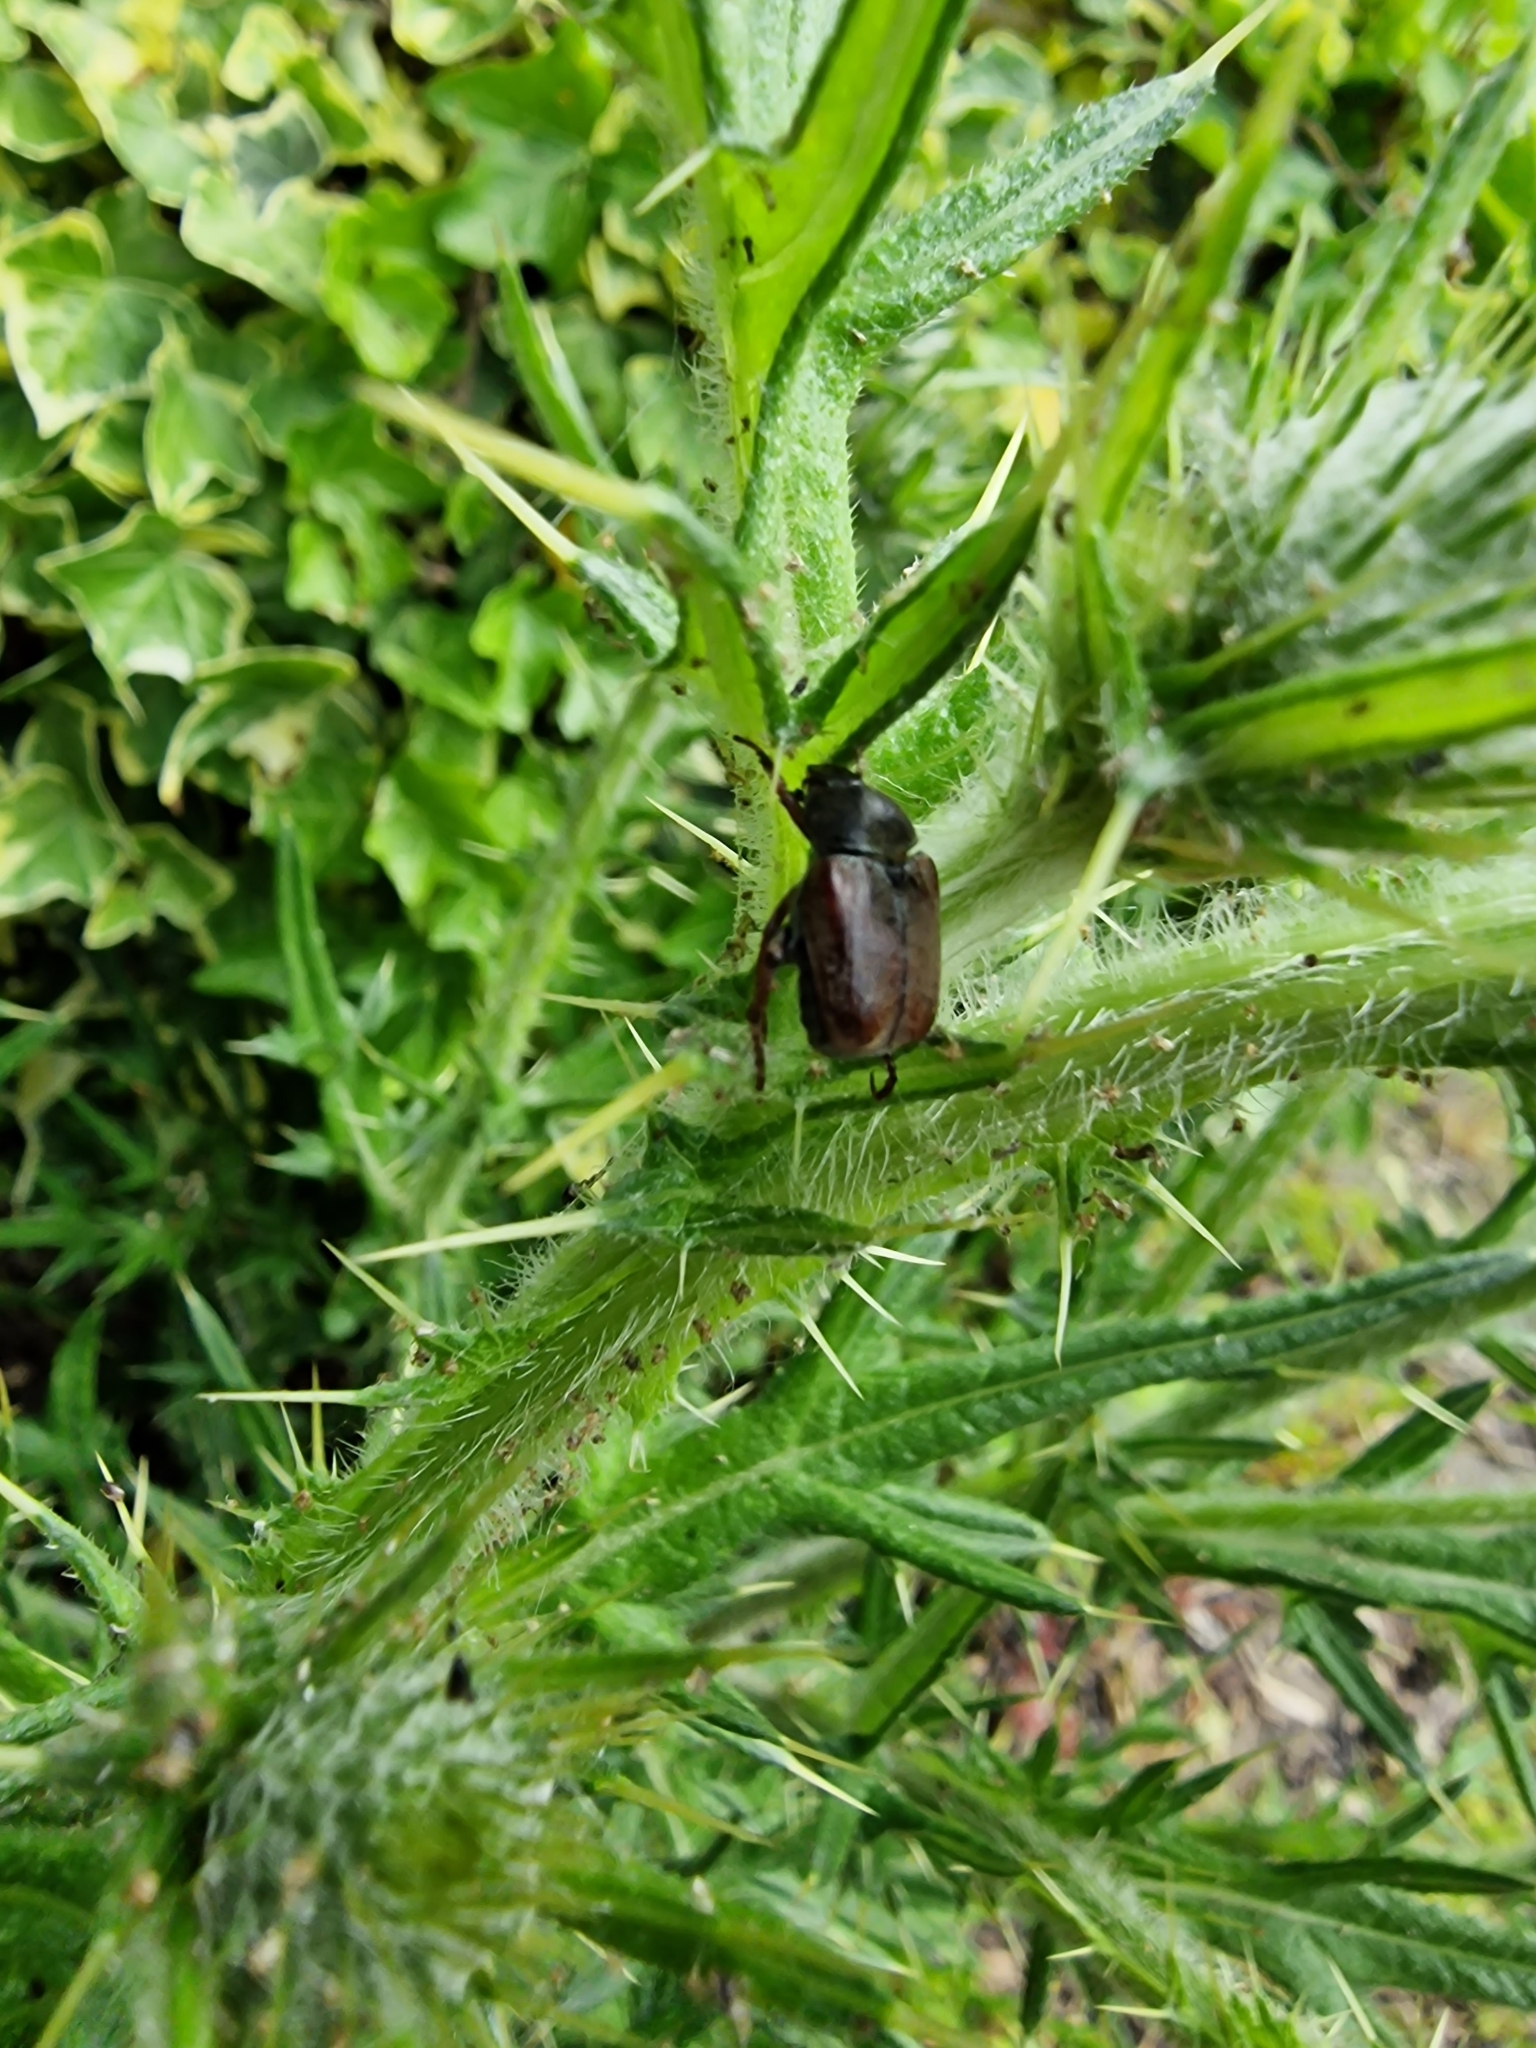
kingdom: Animalia
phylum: Arthropoda
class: Insecta
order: Coleoptera
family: Scarabaeidae
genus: Hoplia
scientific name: Hoplia philanthus
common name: Welsh chafer
